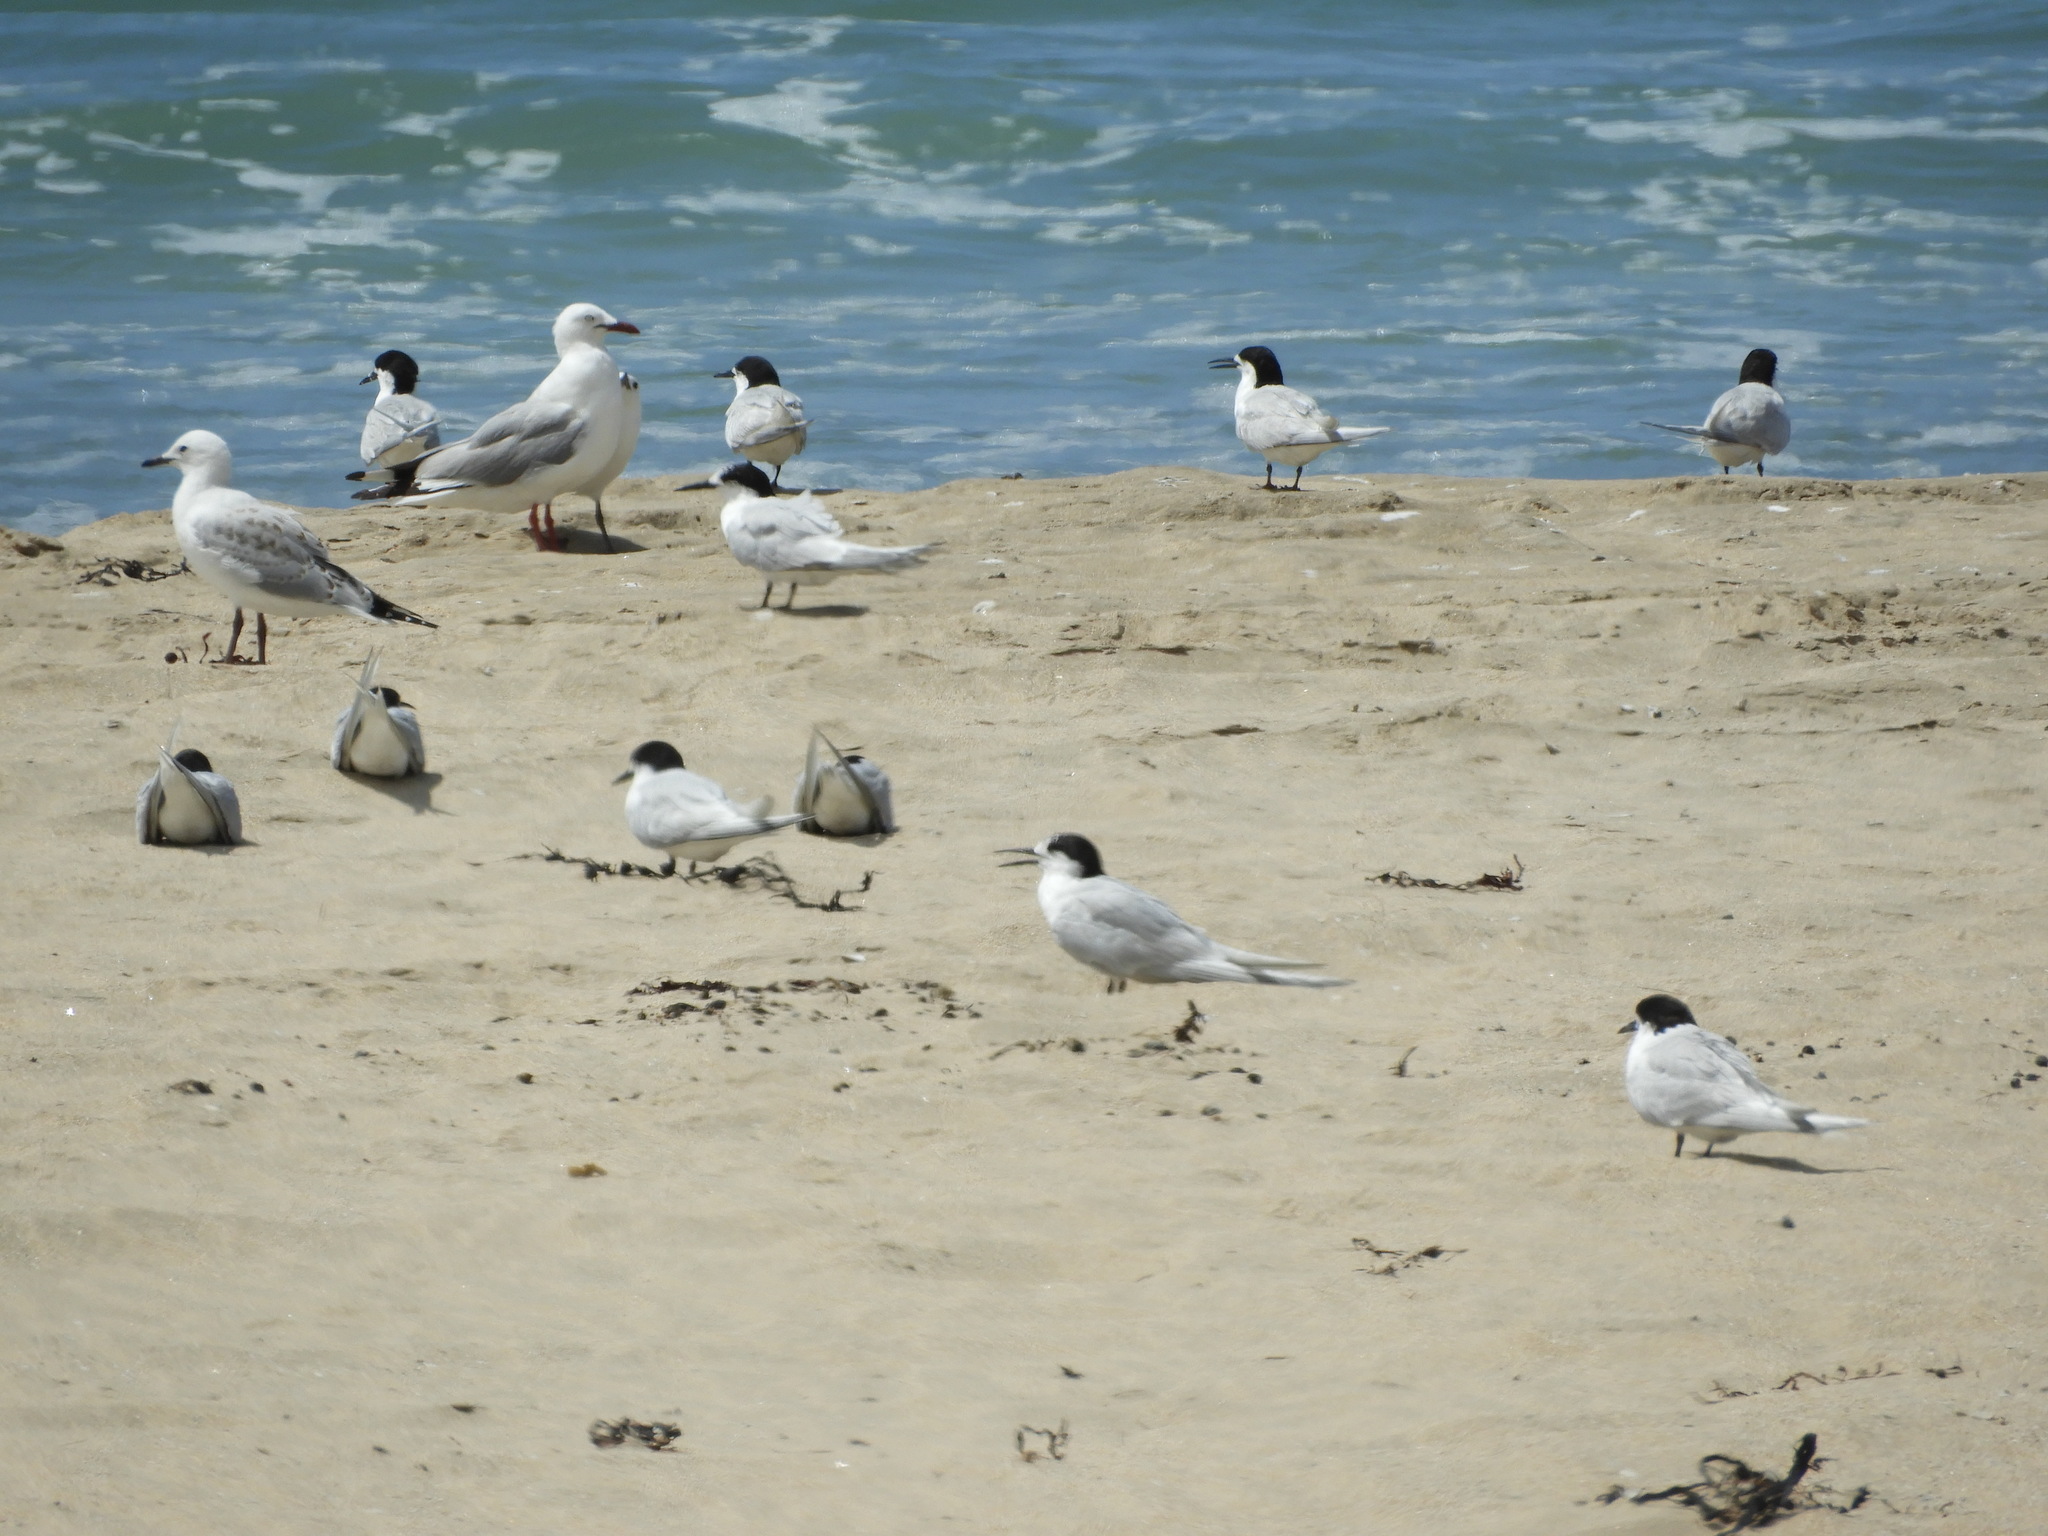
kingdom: Animalia
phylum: Chordata
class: Aves
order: Charadriiformes
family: Laridae
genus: Chroicocephalus
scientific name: Chroicocephalus novaehollandiae
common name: Silver gull
